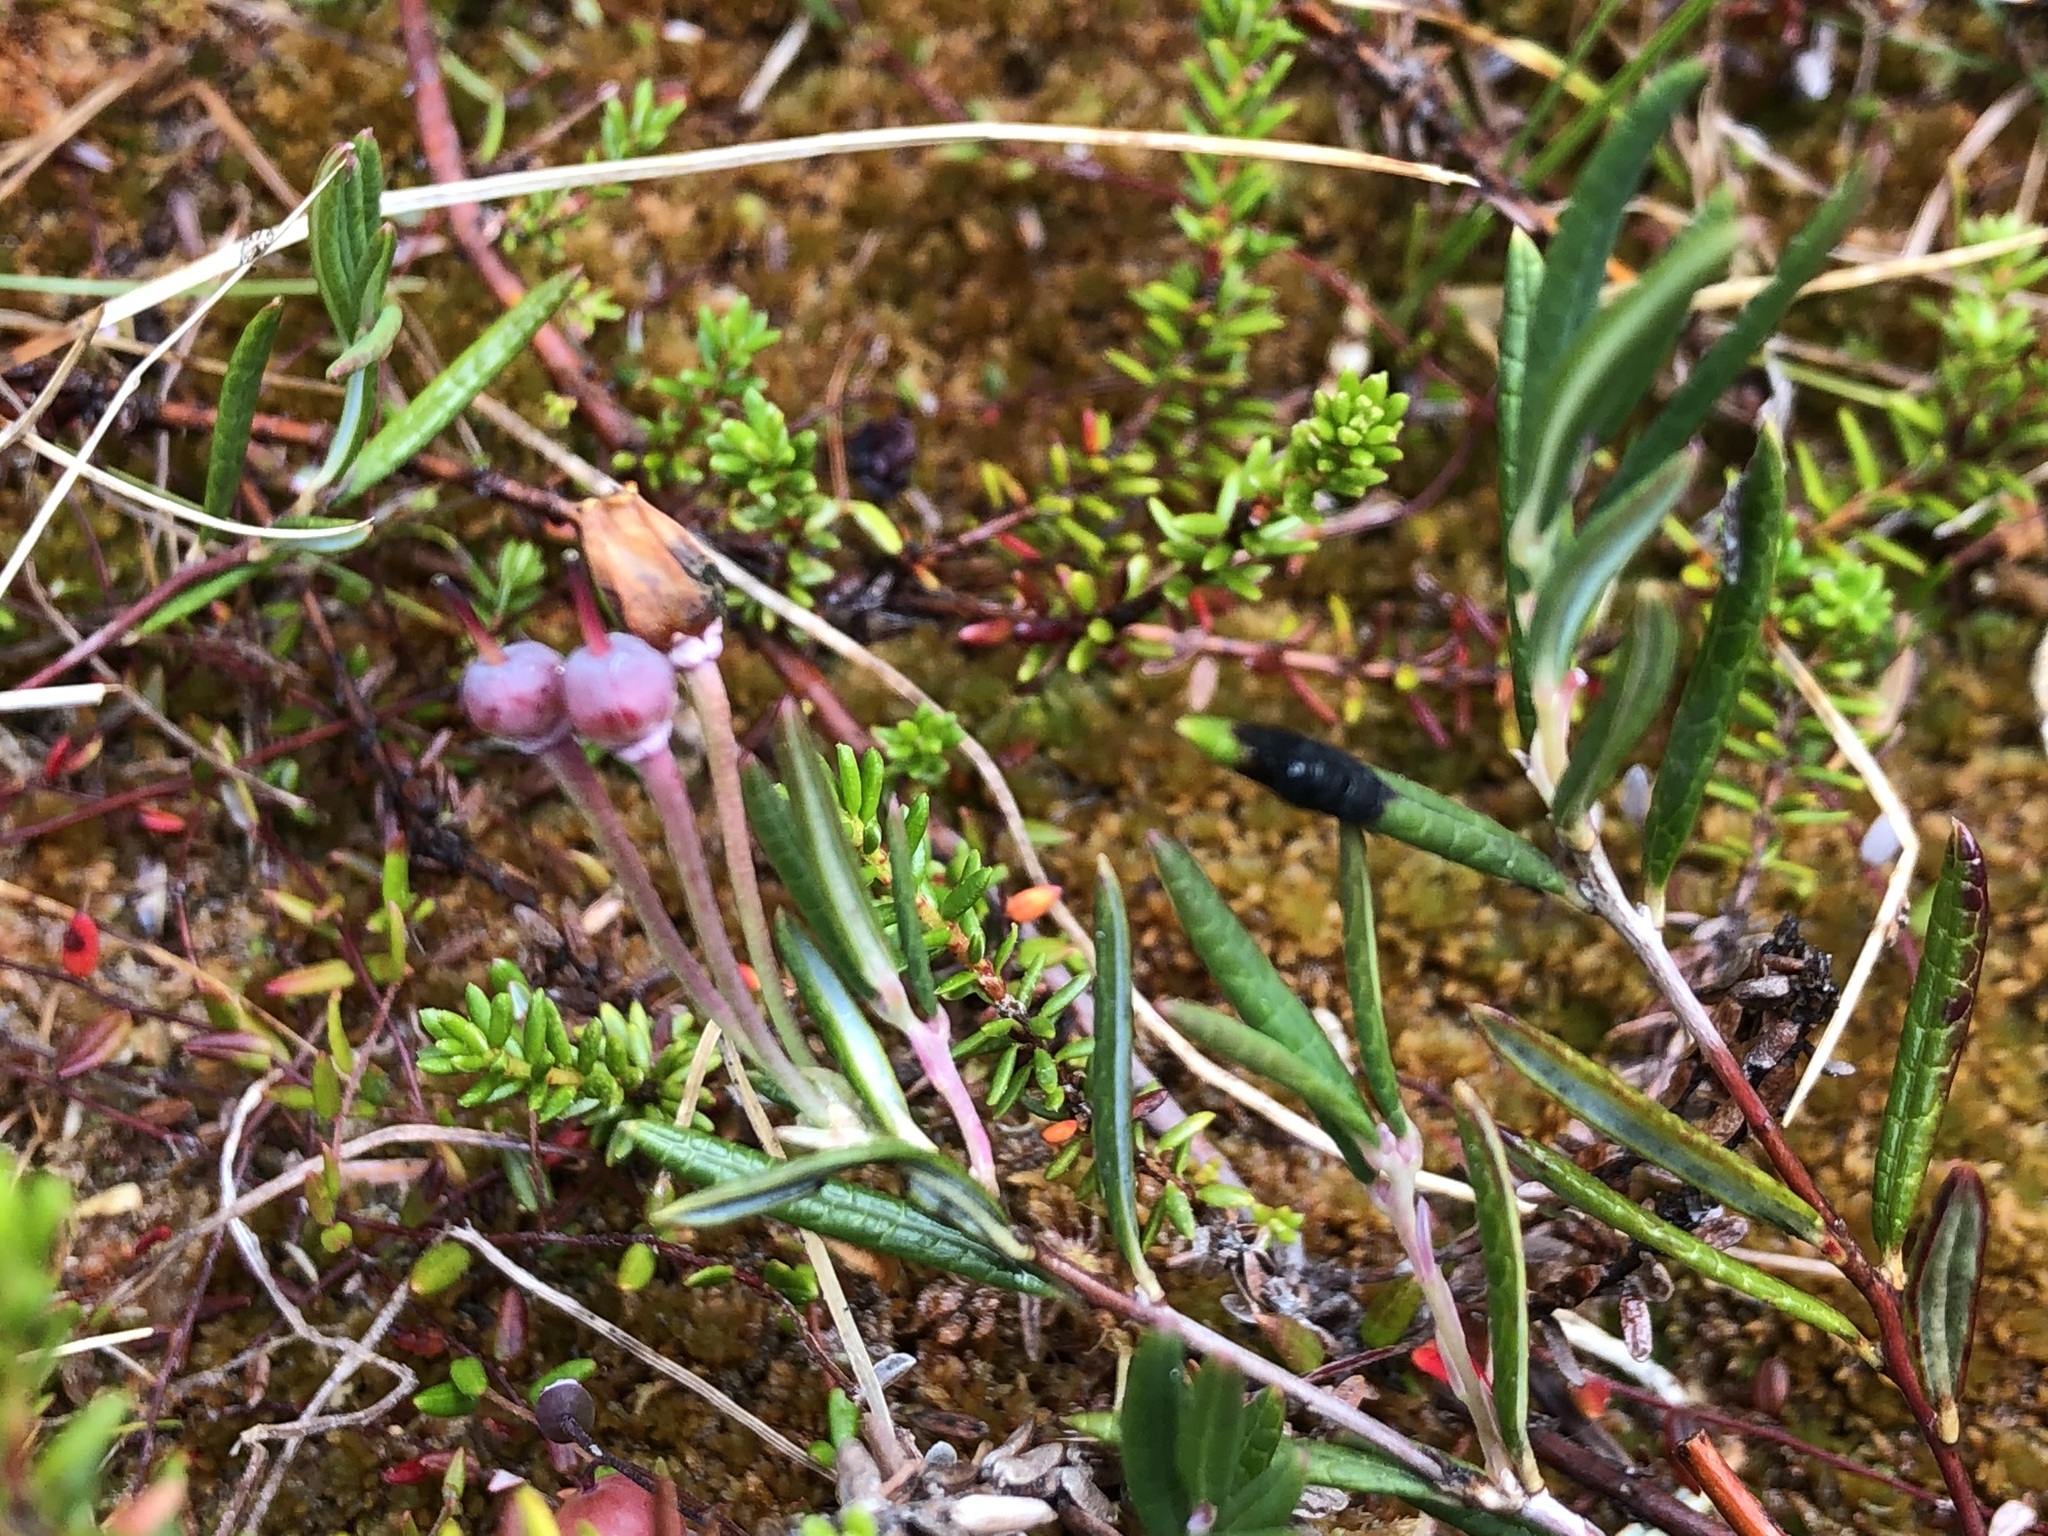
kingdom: Plantae
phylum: Tracheophyta
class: Magnoliopsida
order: Ericales
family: Ericaceae
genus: Andromeda
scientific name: Andromeda polifolia
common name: Bog-rosemary
